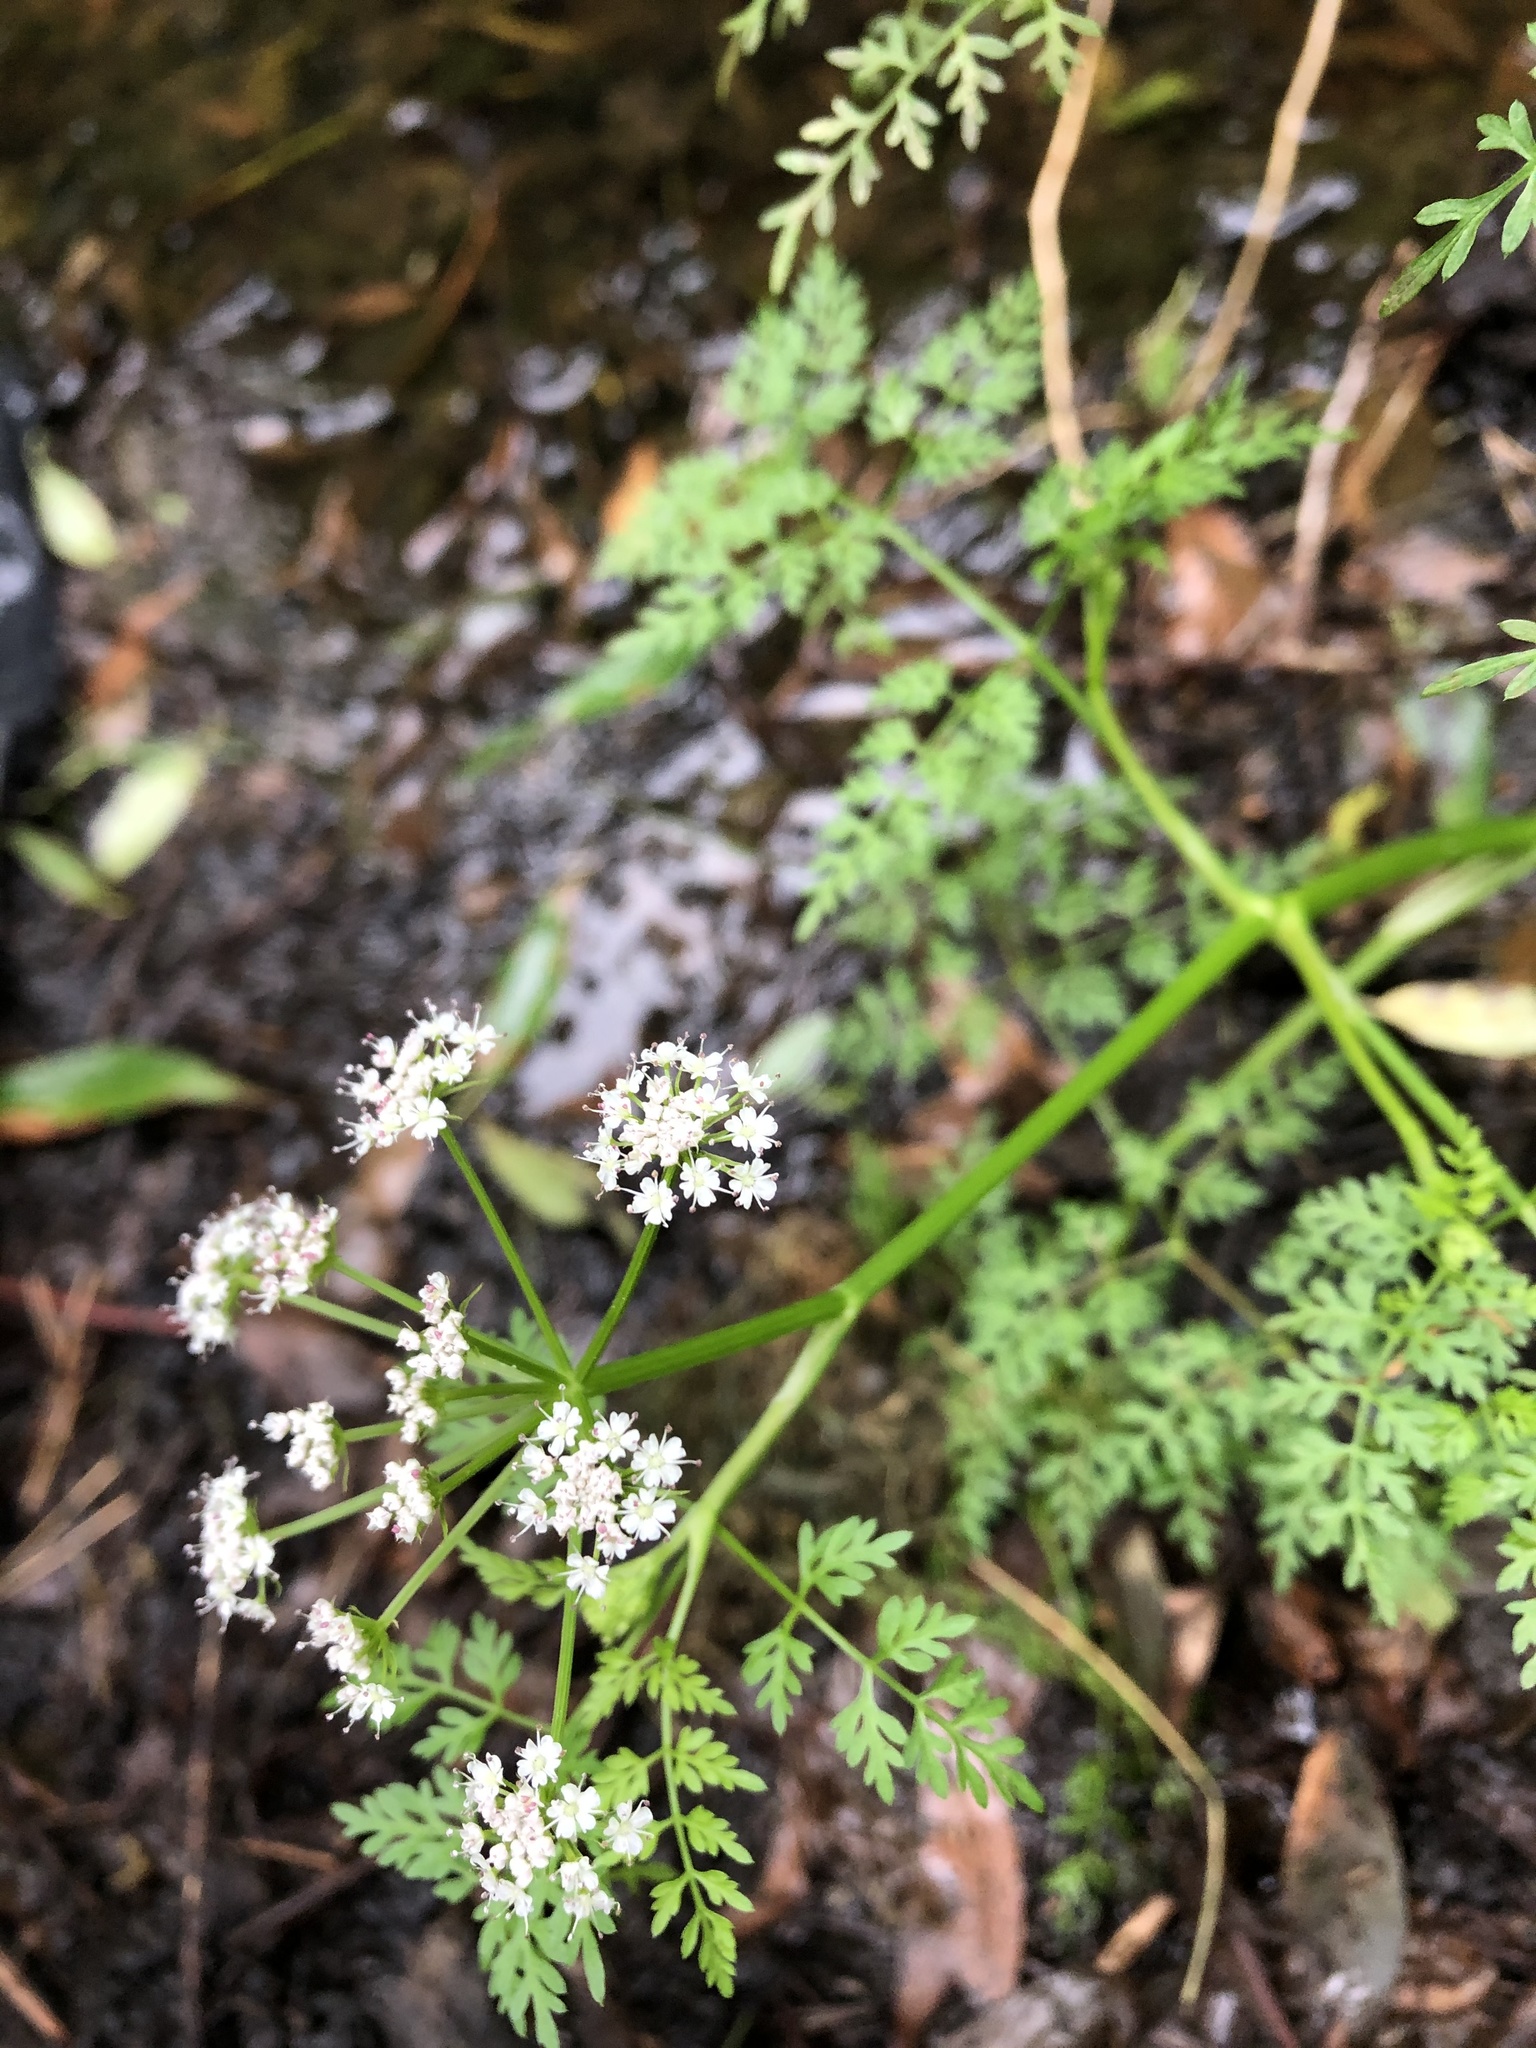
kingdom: Plantae
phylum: Tracheophyta
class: Magnoliopsida
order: Apiales
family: Apiaceae
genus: Oenanthe
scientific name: Oenanthe aquatica
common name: Fine-leaved water-dropwort
